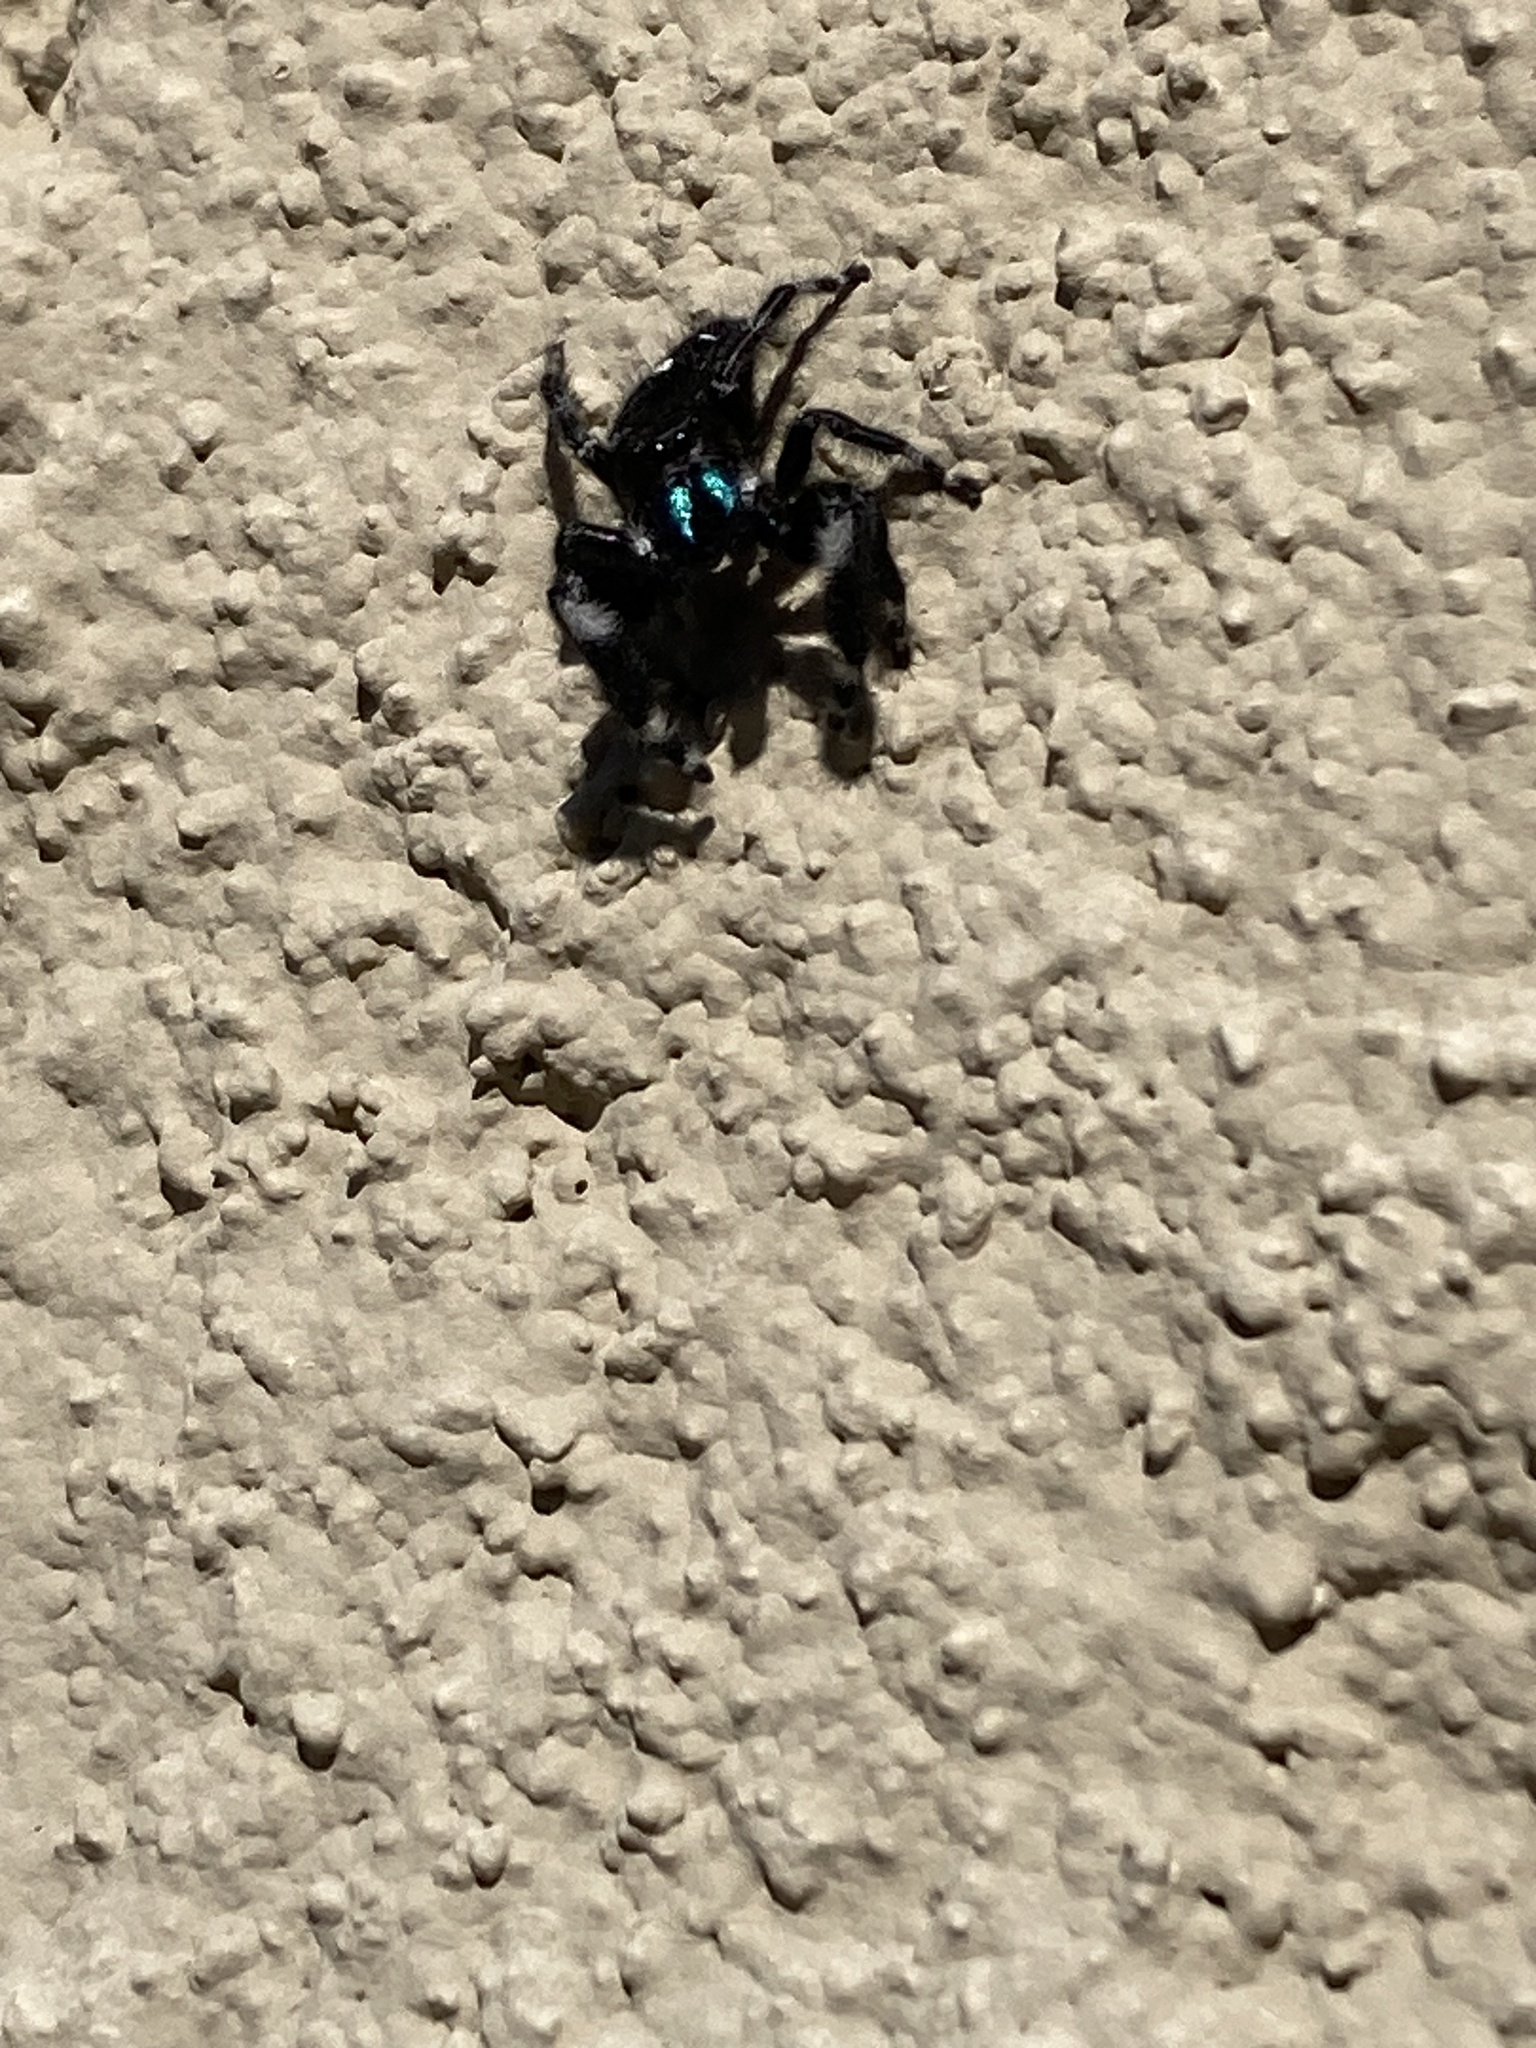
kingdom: Animalia
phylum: Arthropoda
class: Arachnida
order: Araneae
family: Salticidae
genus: Phidippus
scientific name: Phidippus audax
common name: Bold jumper
